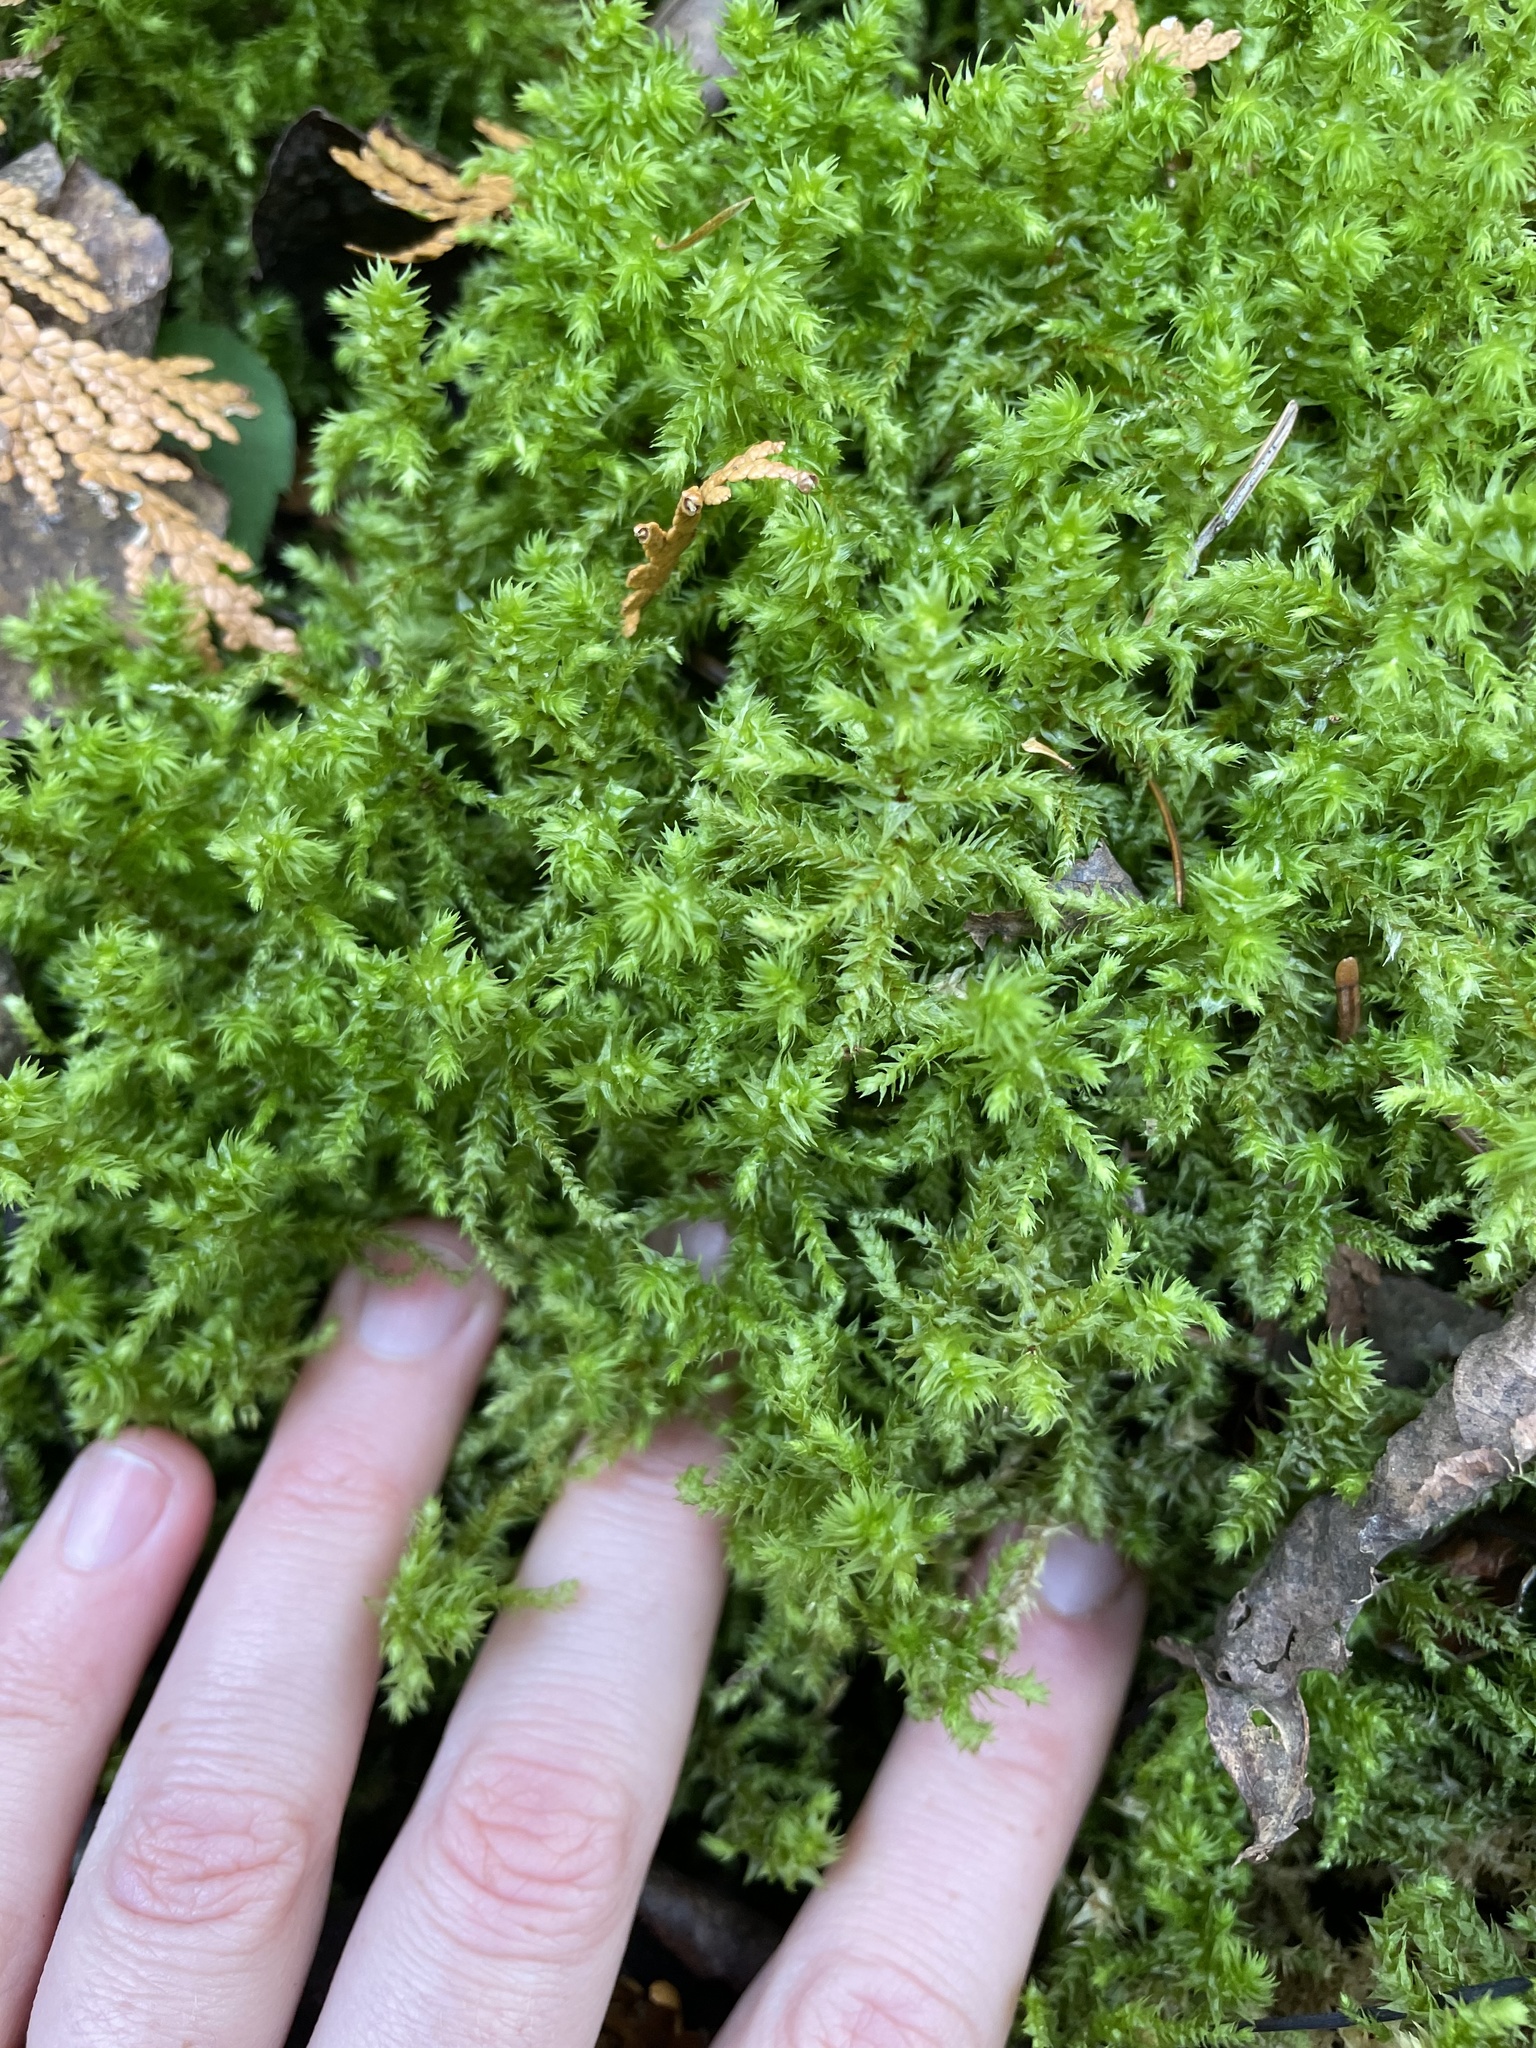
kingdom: Plantae
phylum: Bryophyta
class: Bryopsida
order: Hypnales
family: Hylocomiaceae
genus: Hylocomiadelphus
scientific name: Hylocomiadelphus triquetrus
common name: Rough goose neck moss
